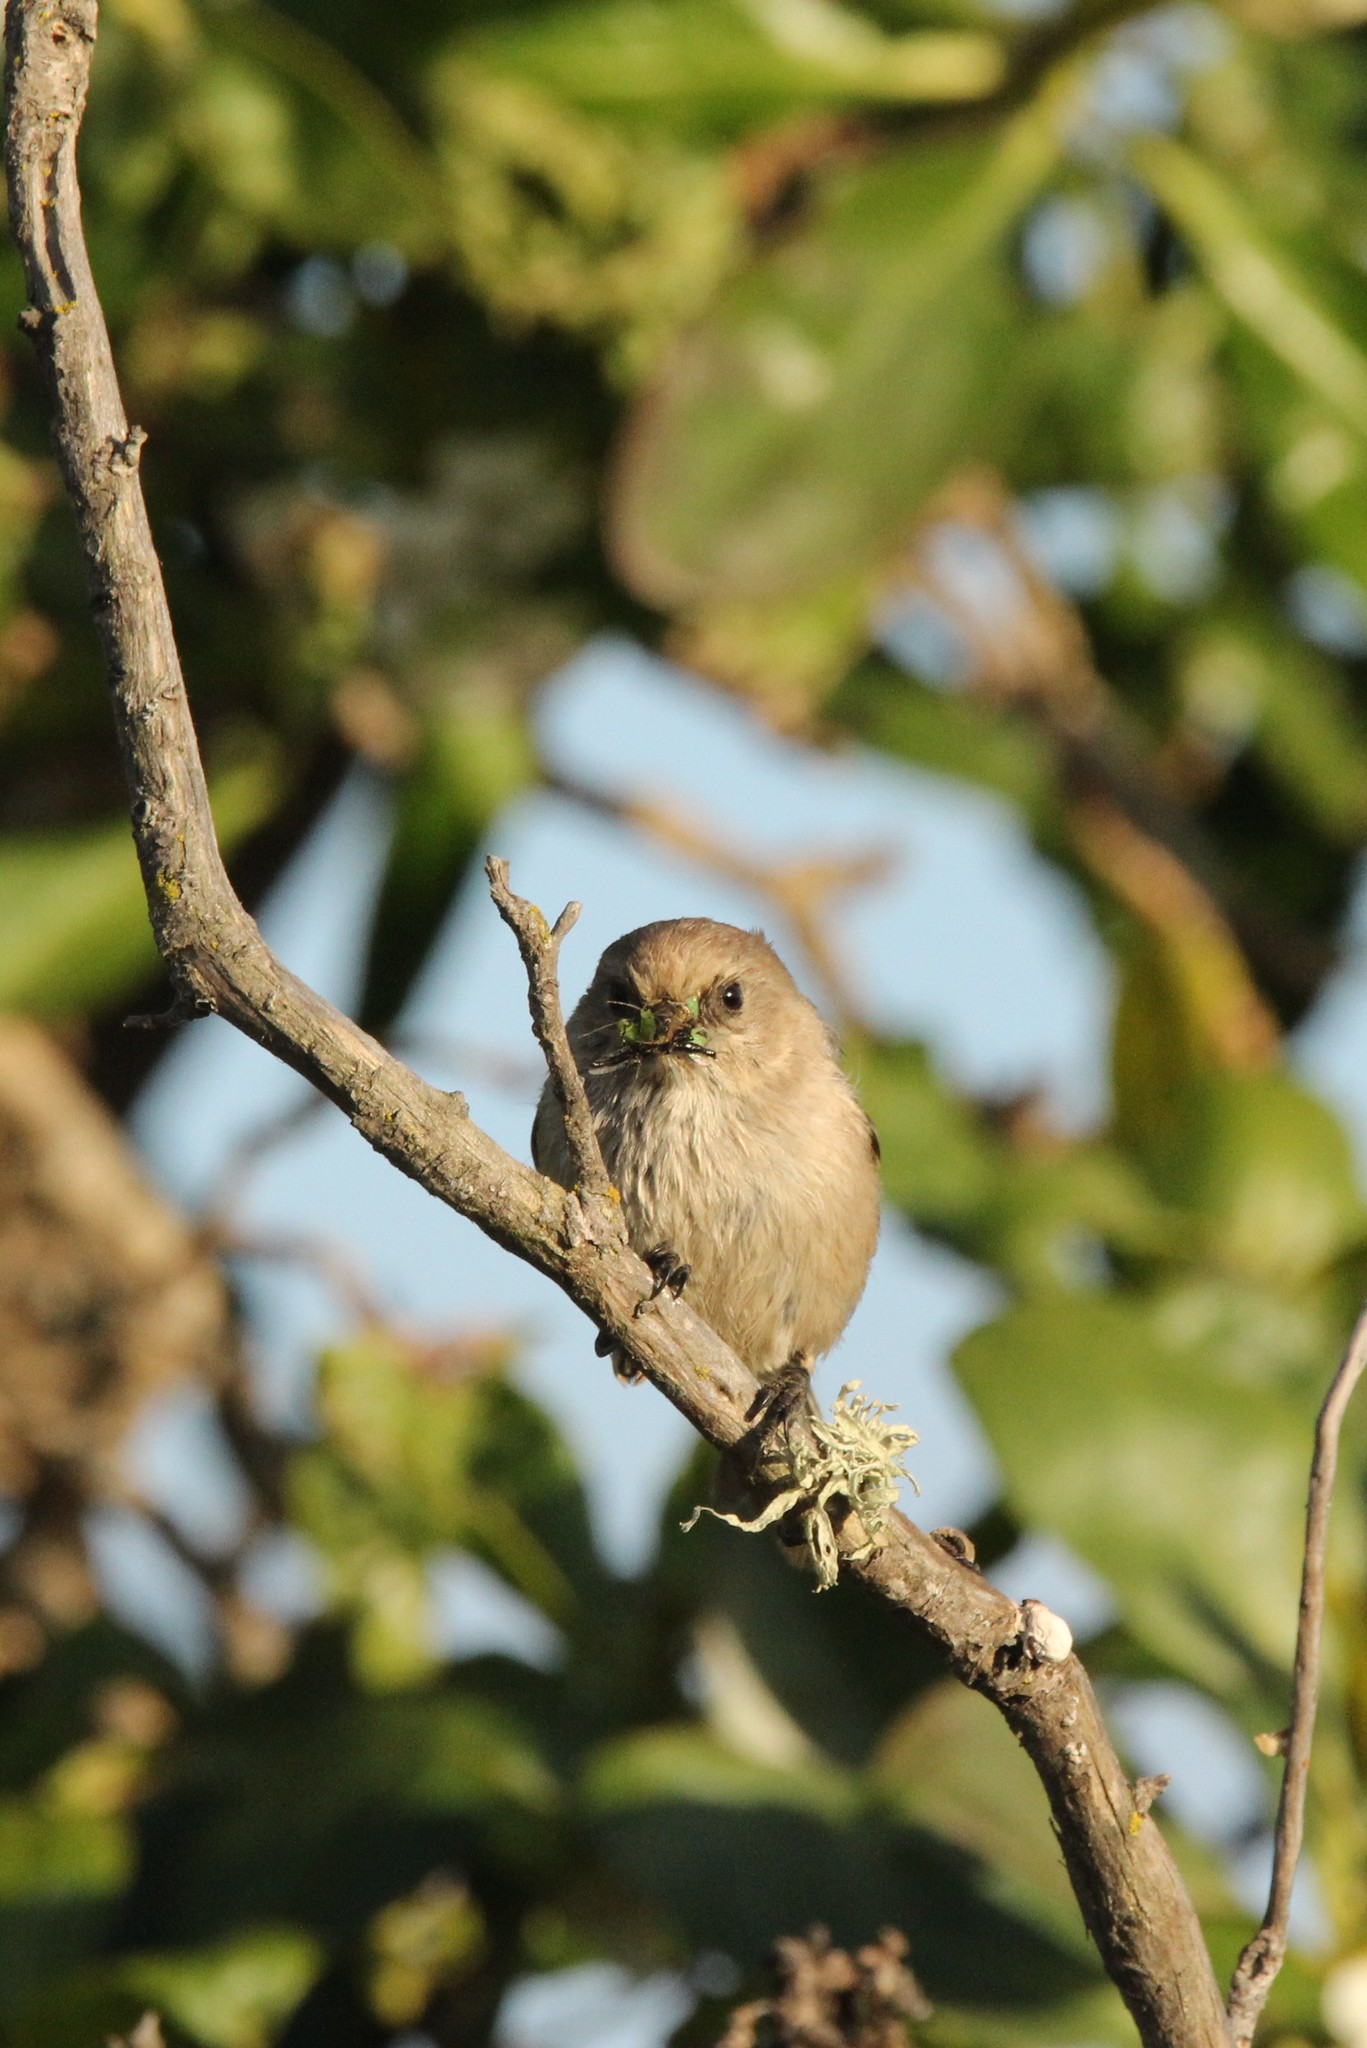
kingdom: Animalia
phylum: Chordata
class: Aves
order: Passeriformes
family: Aegithalidae
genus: Psaltriparus
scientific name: Psaltriparus minimus
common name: American bushtit
